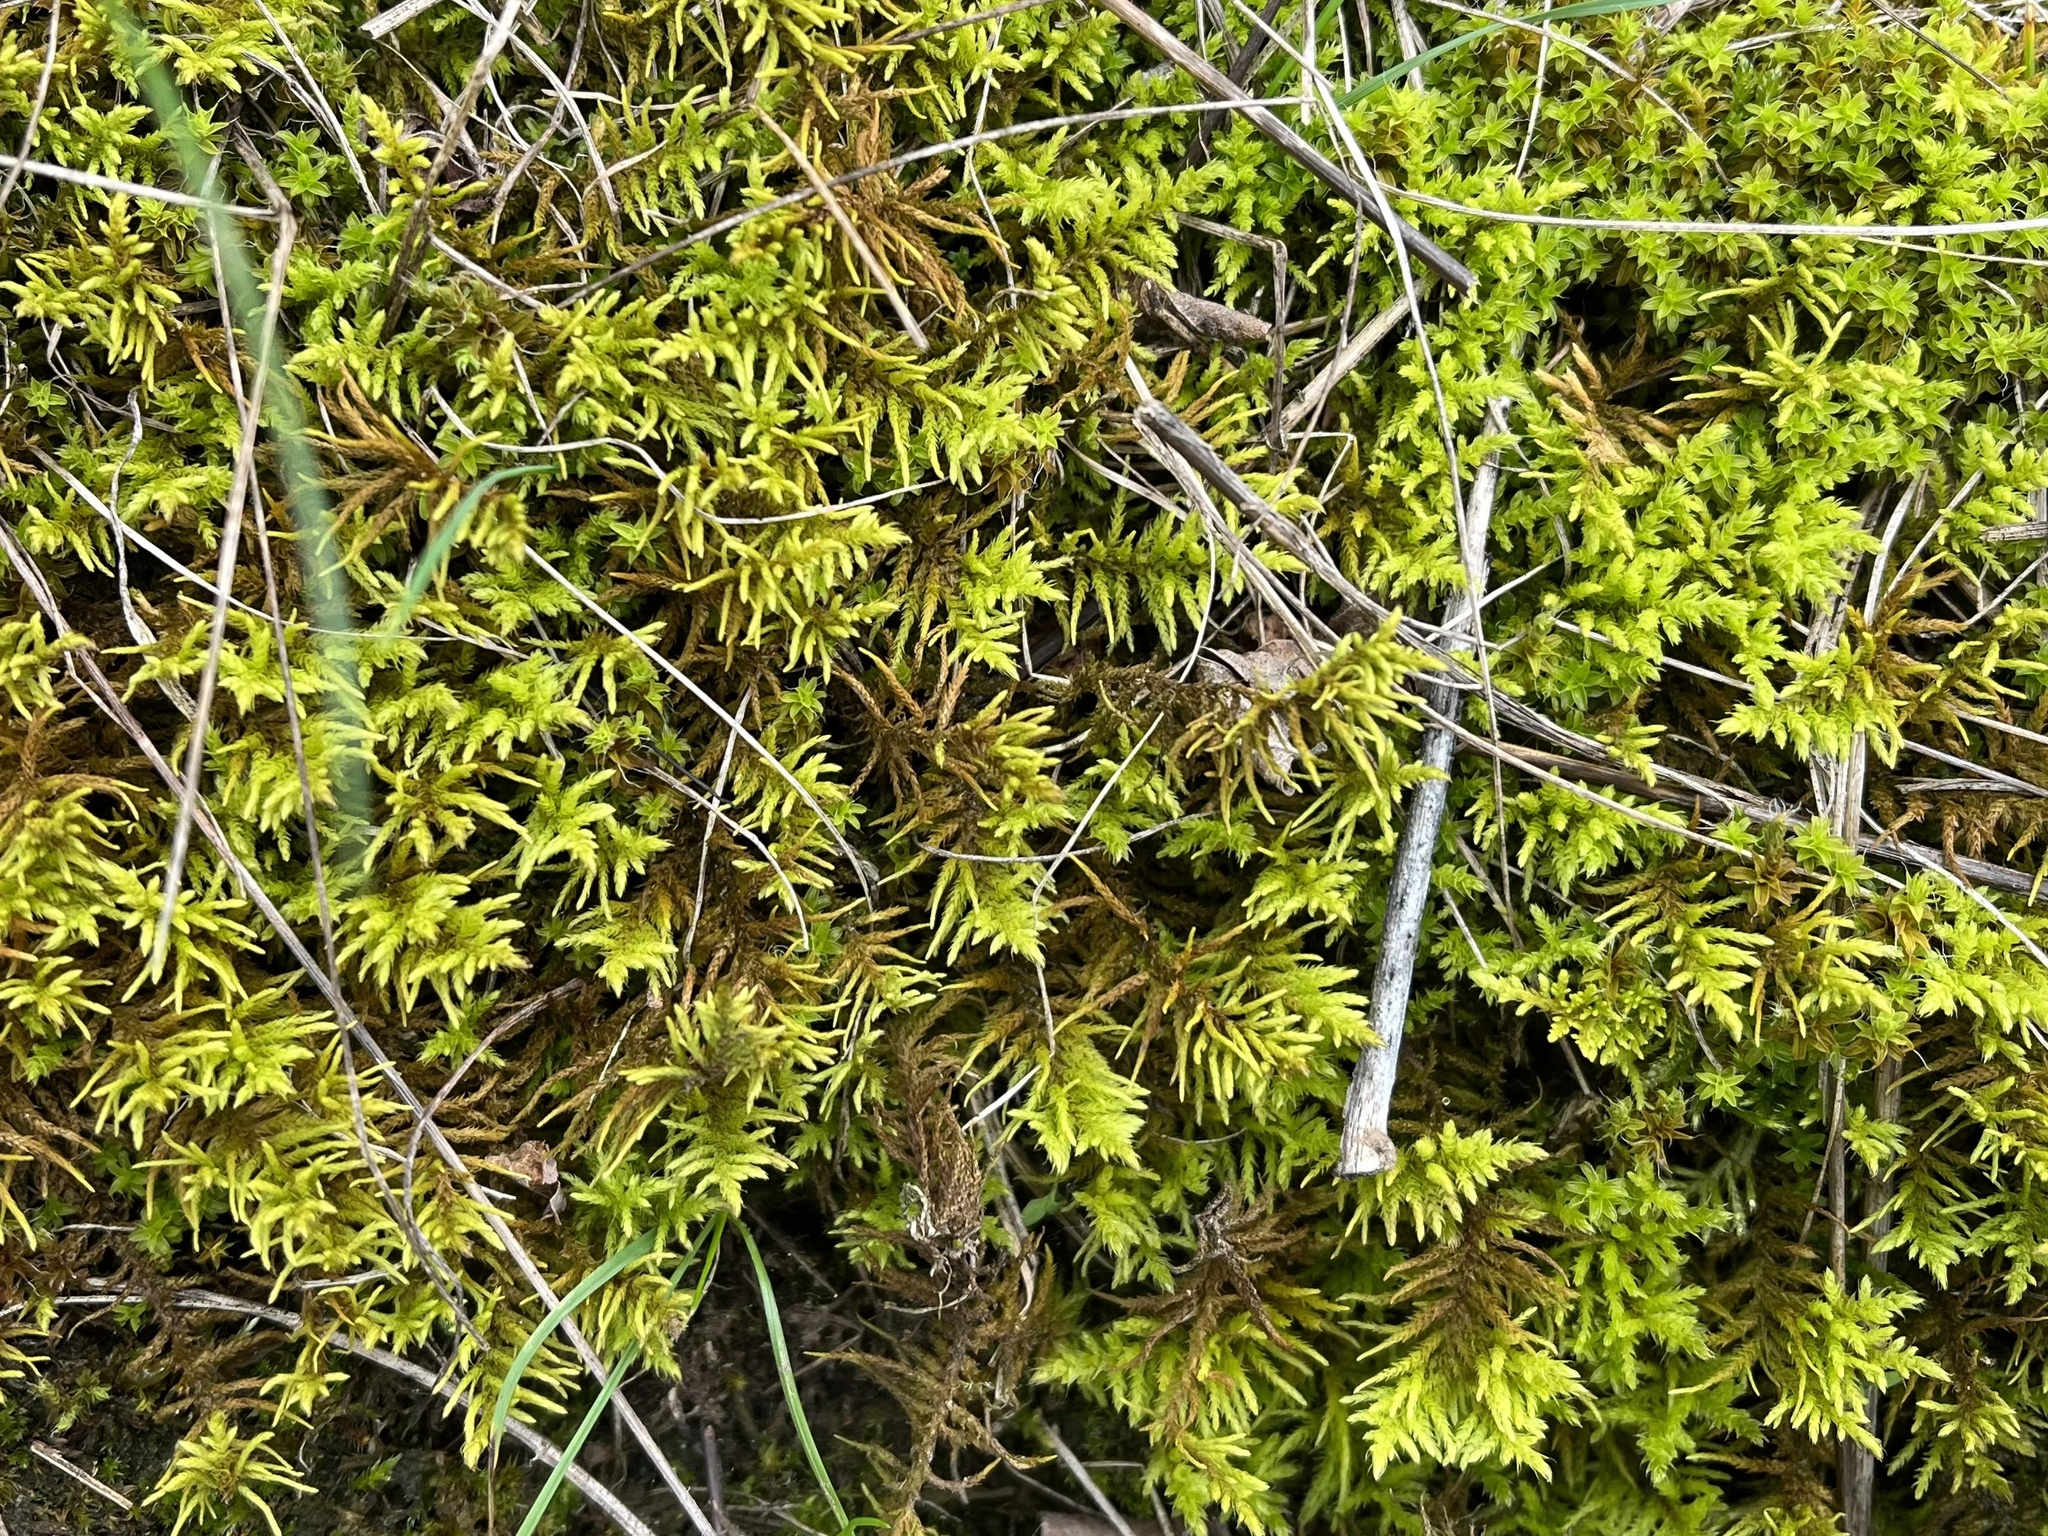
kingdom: Plantae
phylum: Bryophyta
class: Bryopsida
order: Hypnales
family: Thuidiaceae
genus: Abietinella
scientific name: Abietinella abietina
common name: Wiry fern moss
